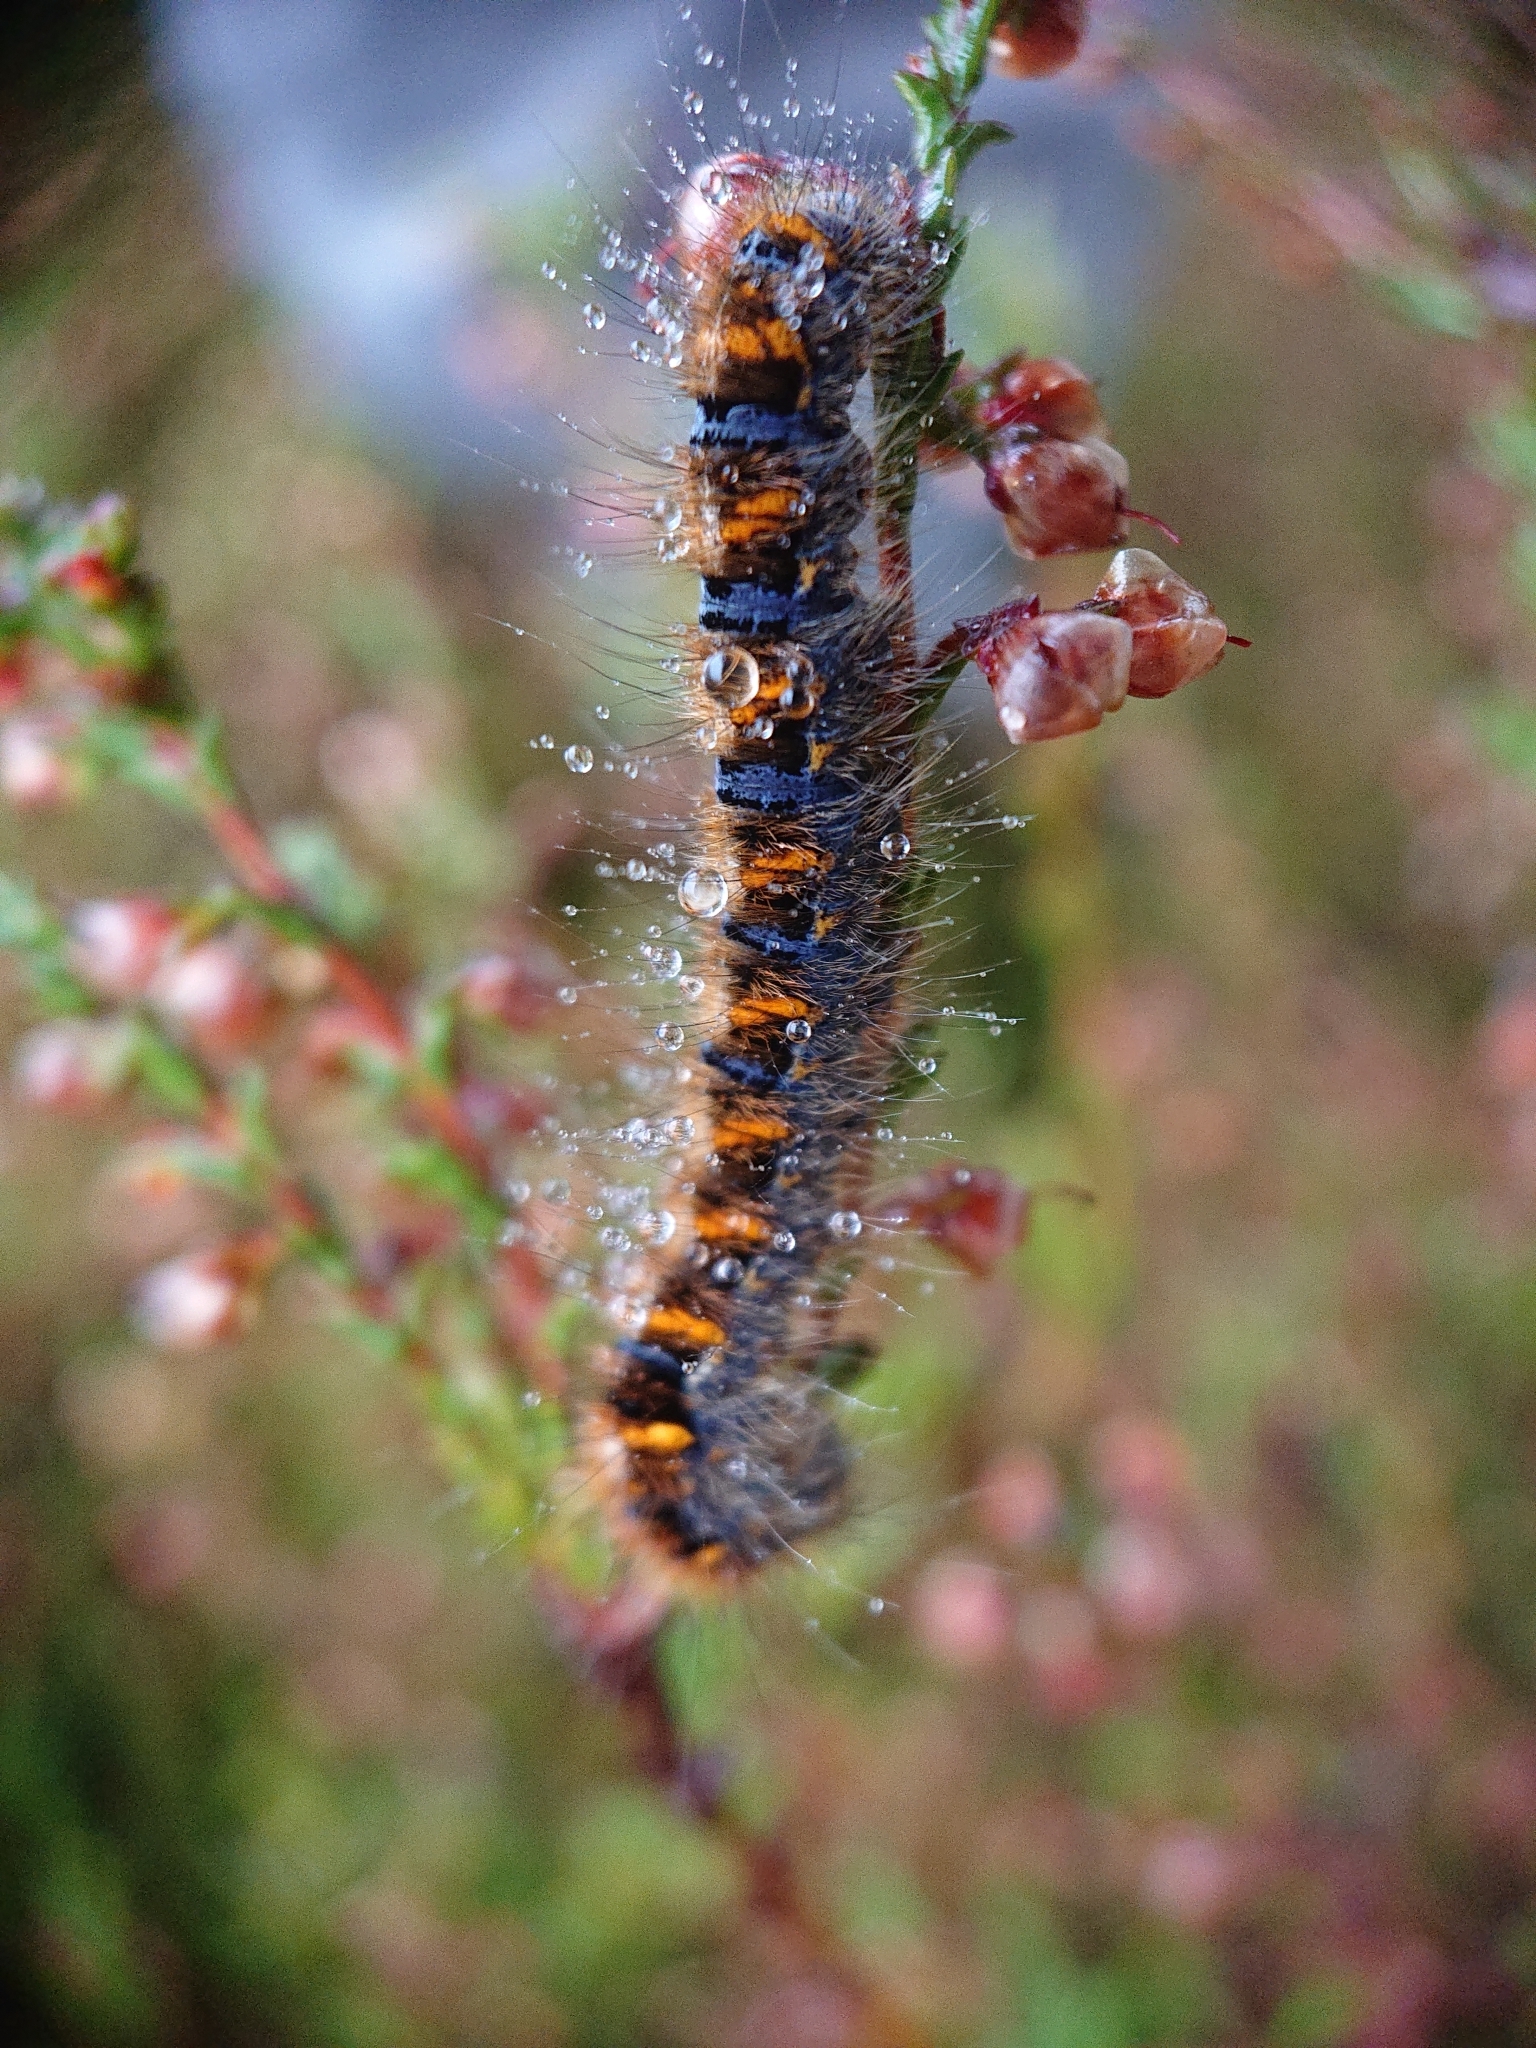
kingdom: Animalia
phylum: Arthropoda
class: Insecta
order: Lepidoptera
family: Lasiocampidae
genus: Lasiocampa
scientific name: Lasiocampa quercus
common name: Oak eggar
